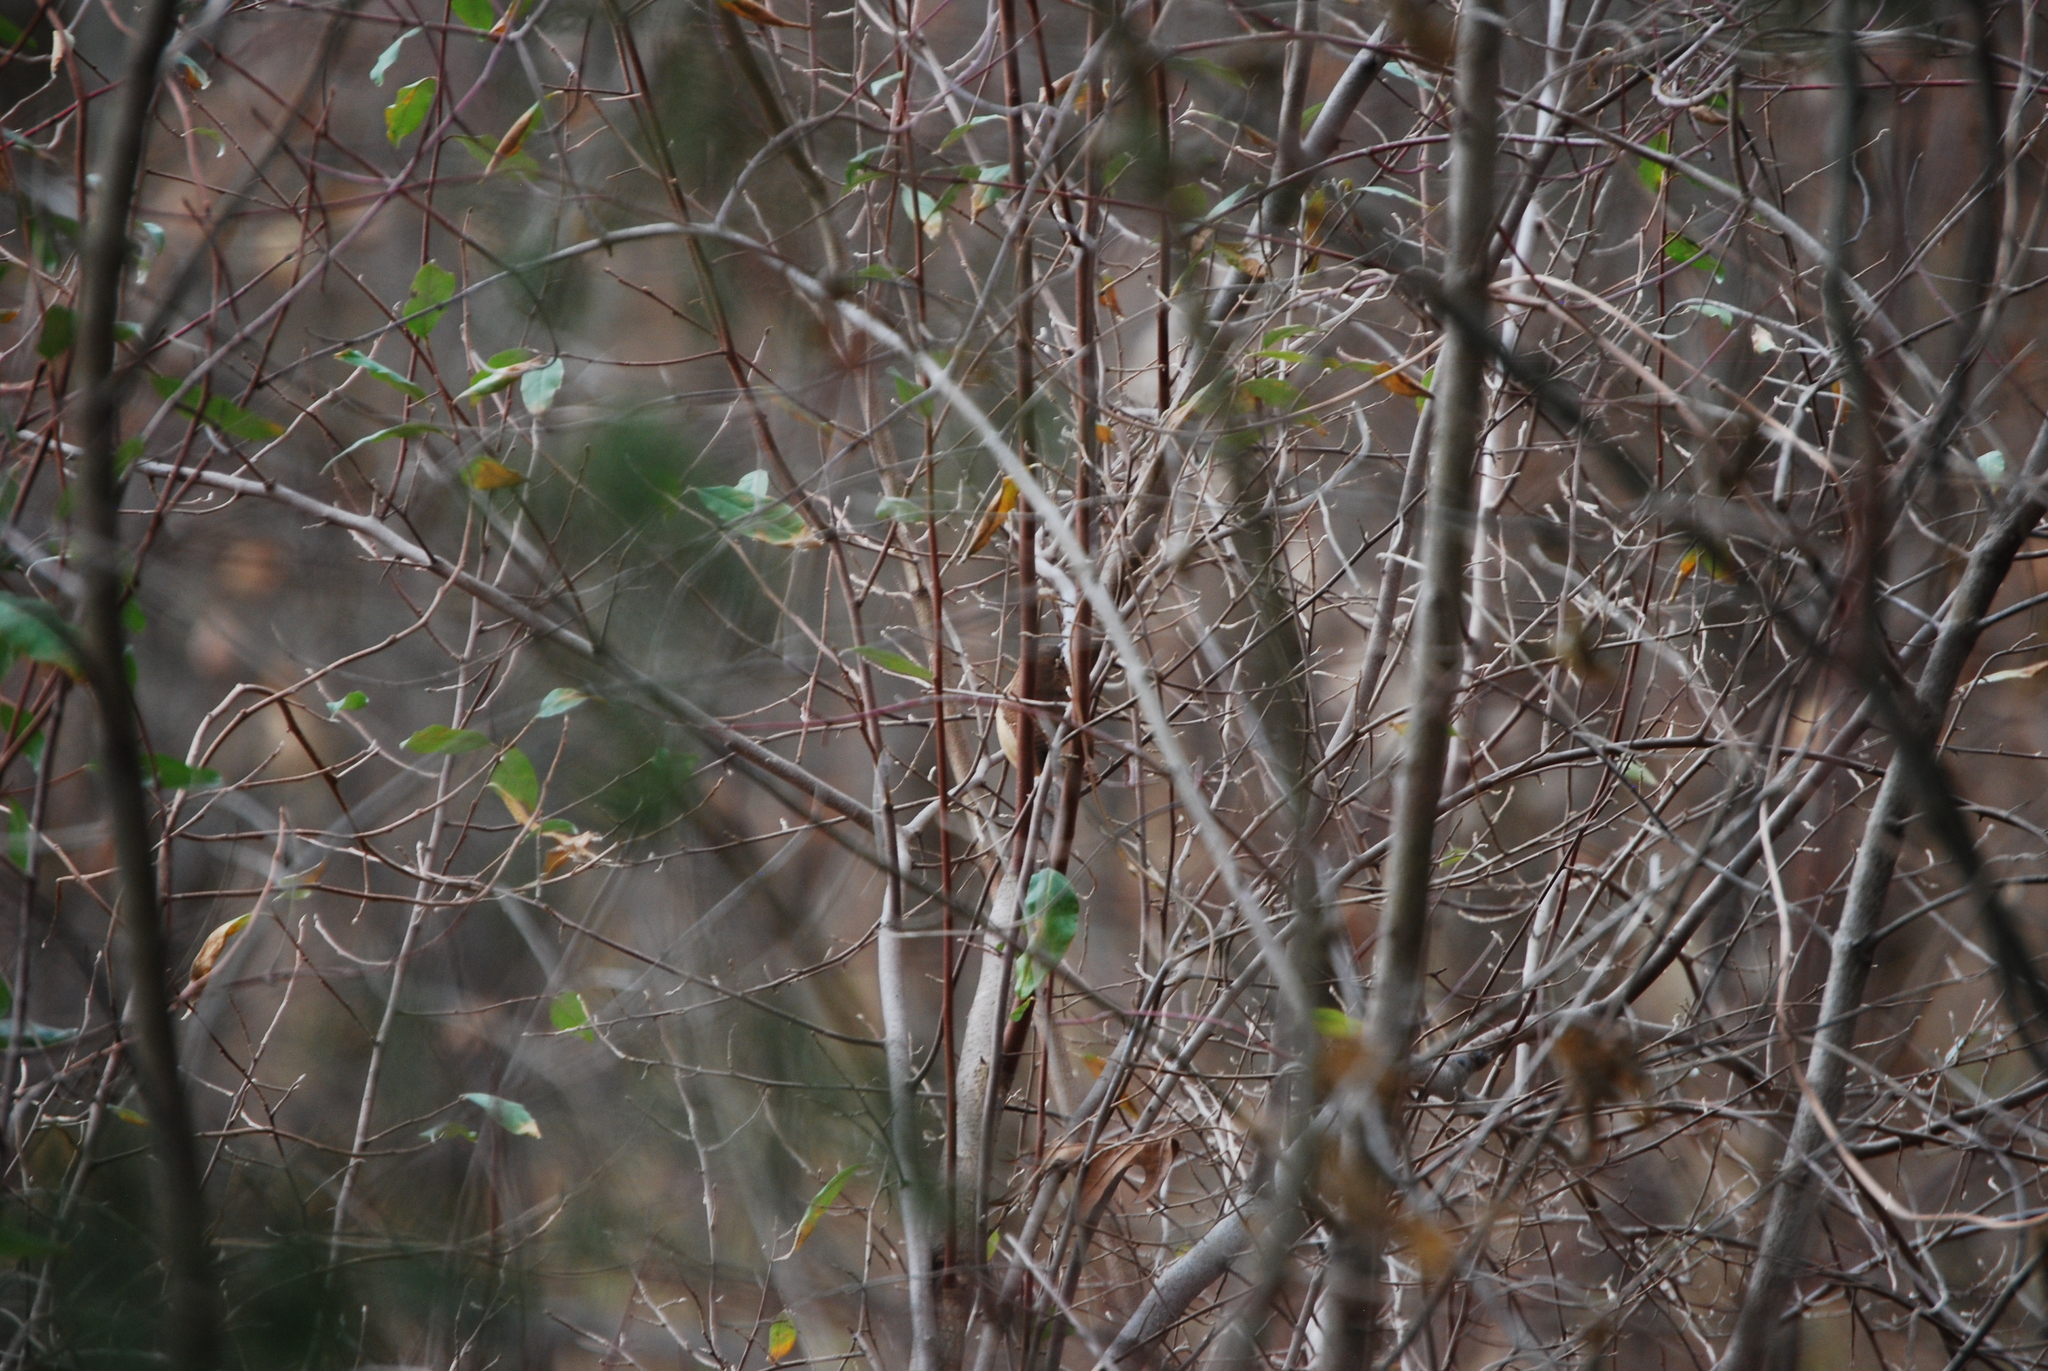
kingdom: Animalia
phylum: Chordata
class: Aves
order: Passeriformes
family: Troglodytidae
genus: Thryothorus
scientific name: Thryothorus ludovicianus
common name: Carolina wren
